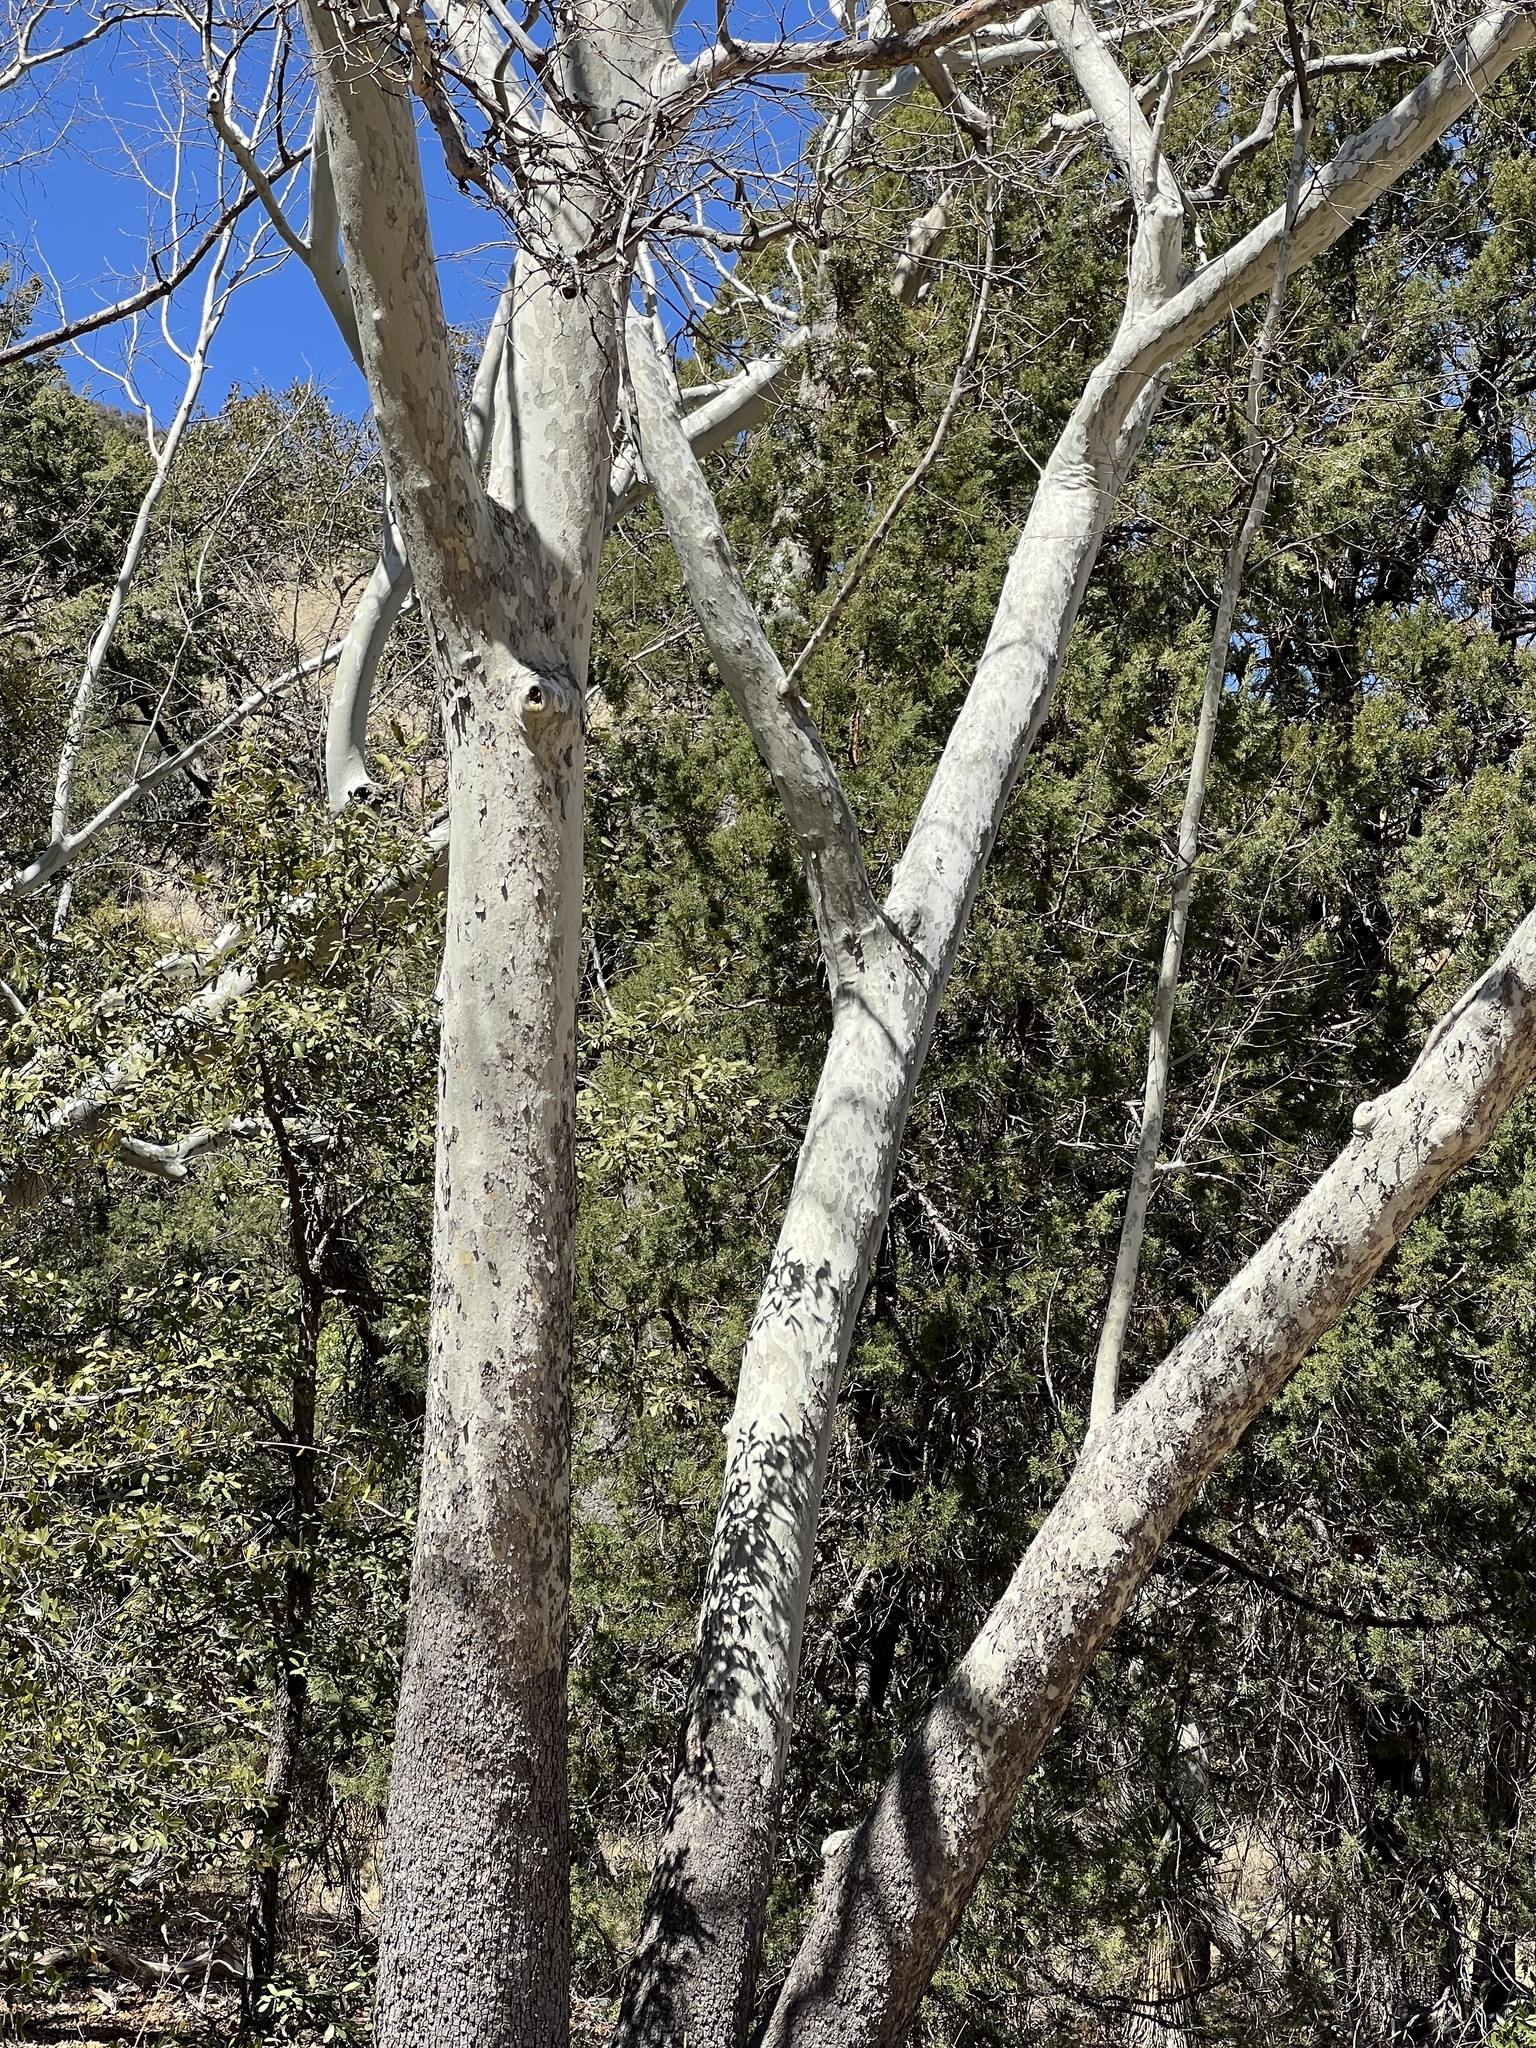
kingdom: Plantae
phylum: Tracheophyta
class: Magnoliopsida
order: Proteales
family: Platanaceae
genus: Platanus
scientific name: Platanus wrightii
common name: Arizona sycamore
